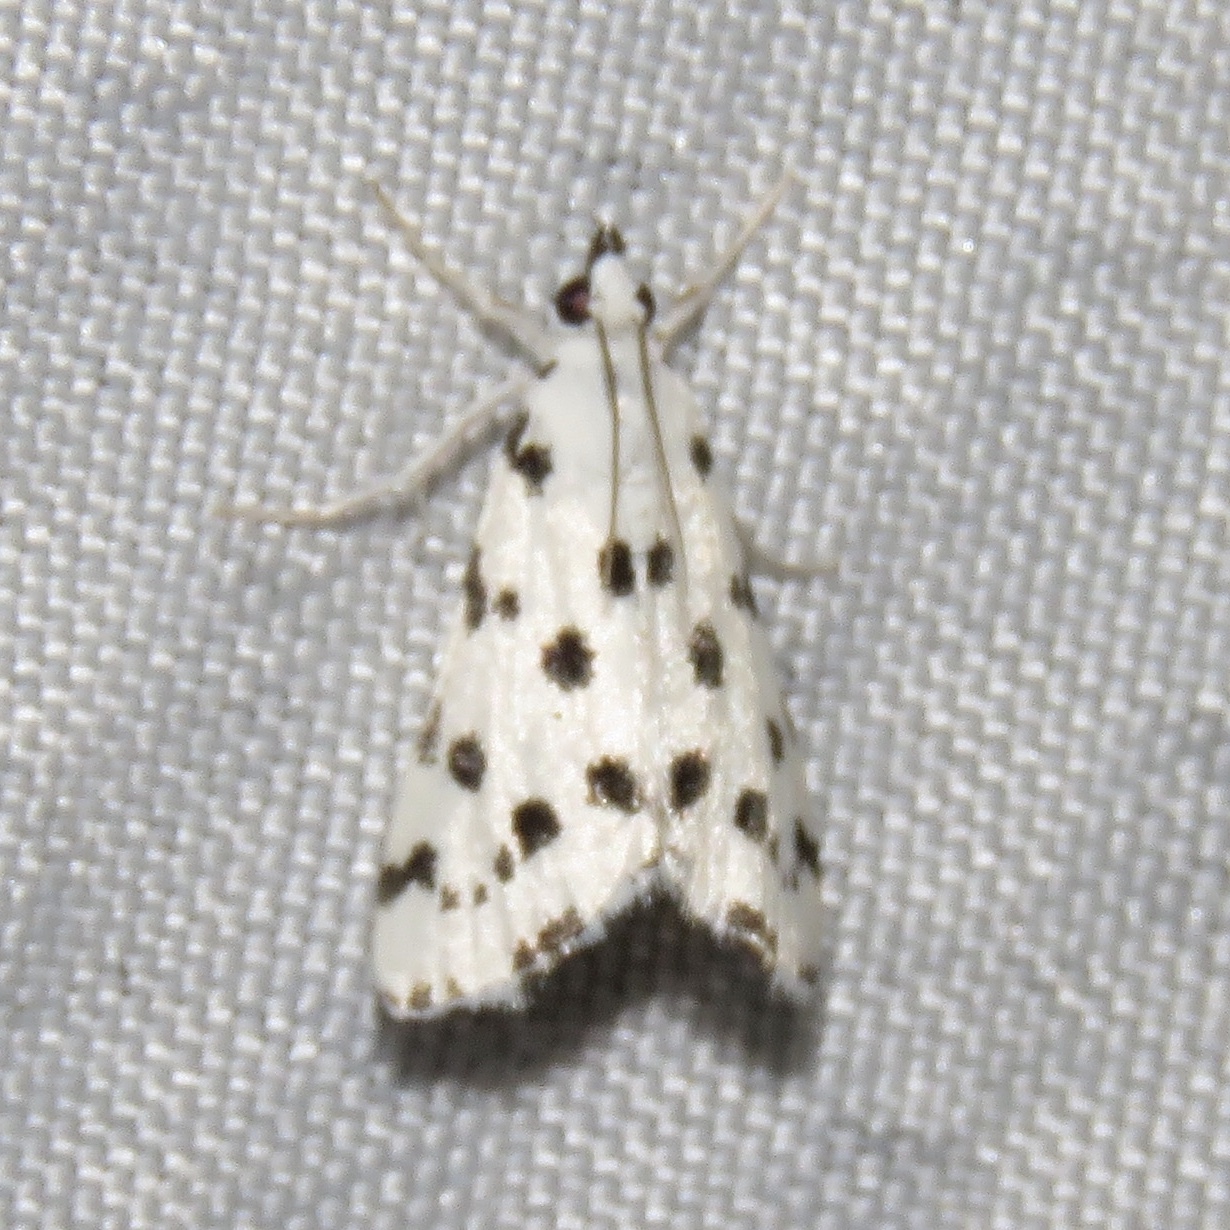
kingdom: Animalia
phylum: Arthropoda
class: Insecta
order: Lepidoptera
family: Crambidae
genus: Eustixia
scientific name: Eustixia pupula
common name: American cabbage pearl
